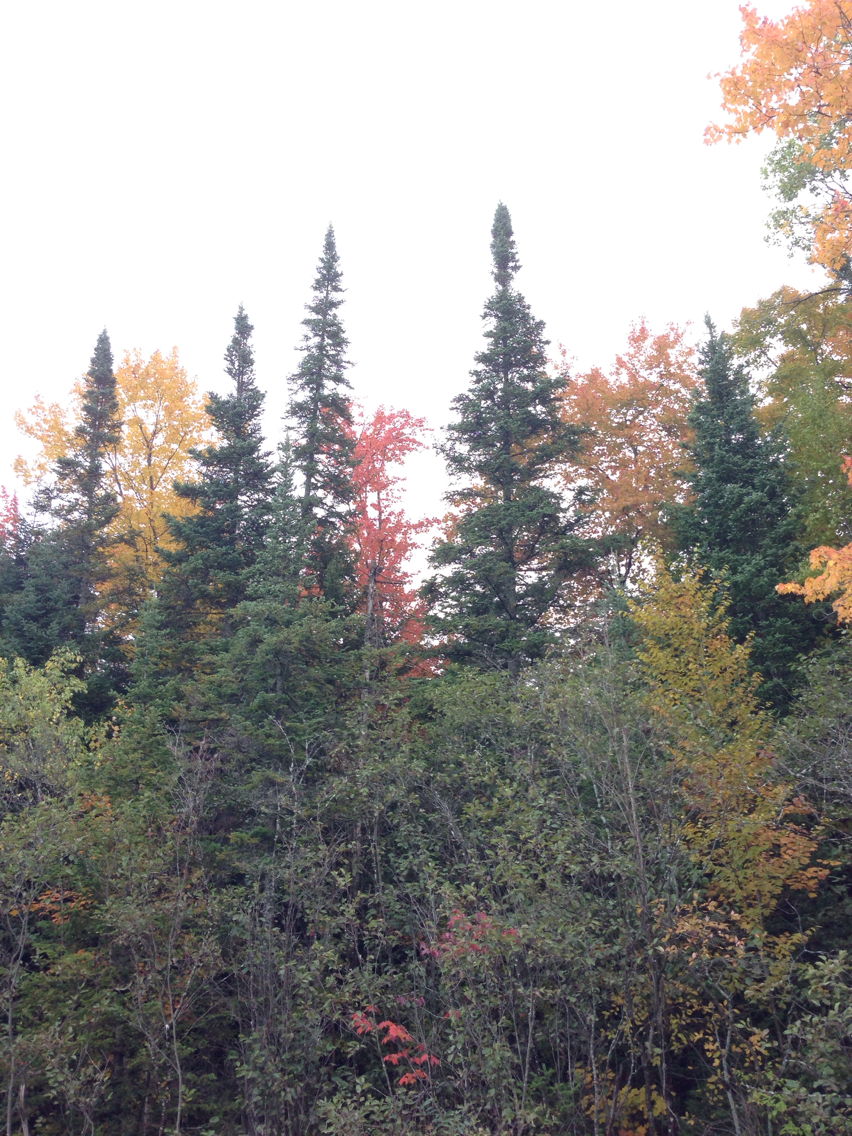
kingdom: Plantae
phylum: Tracheophyta
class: Pinopsida
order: Pinales
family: Pinaceae
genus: Abies
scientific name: Abies balsamea
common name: Balsam fir
